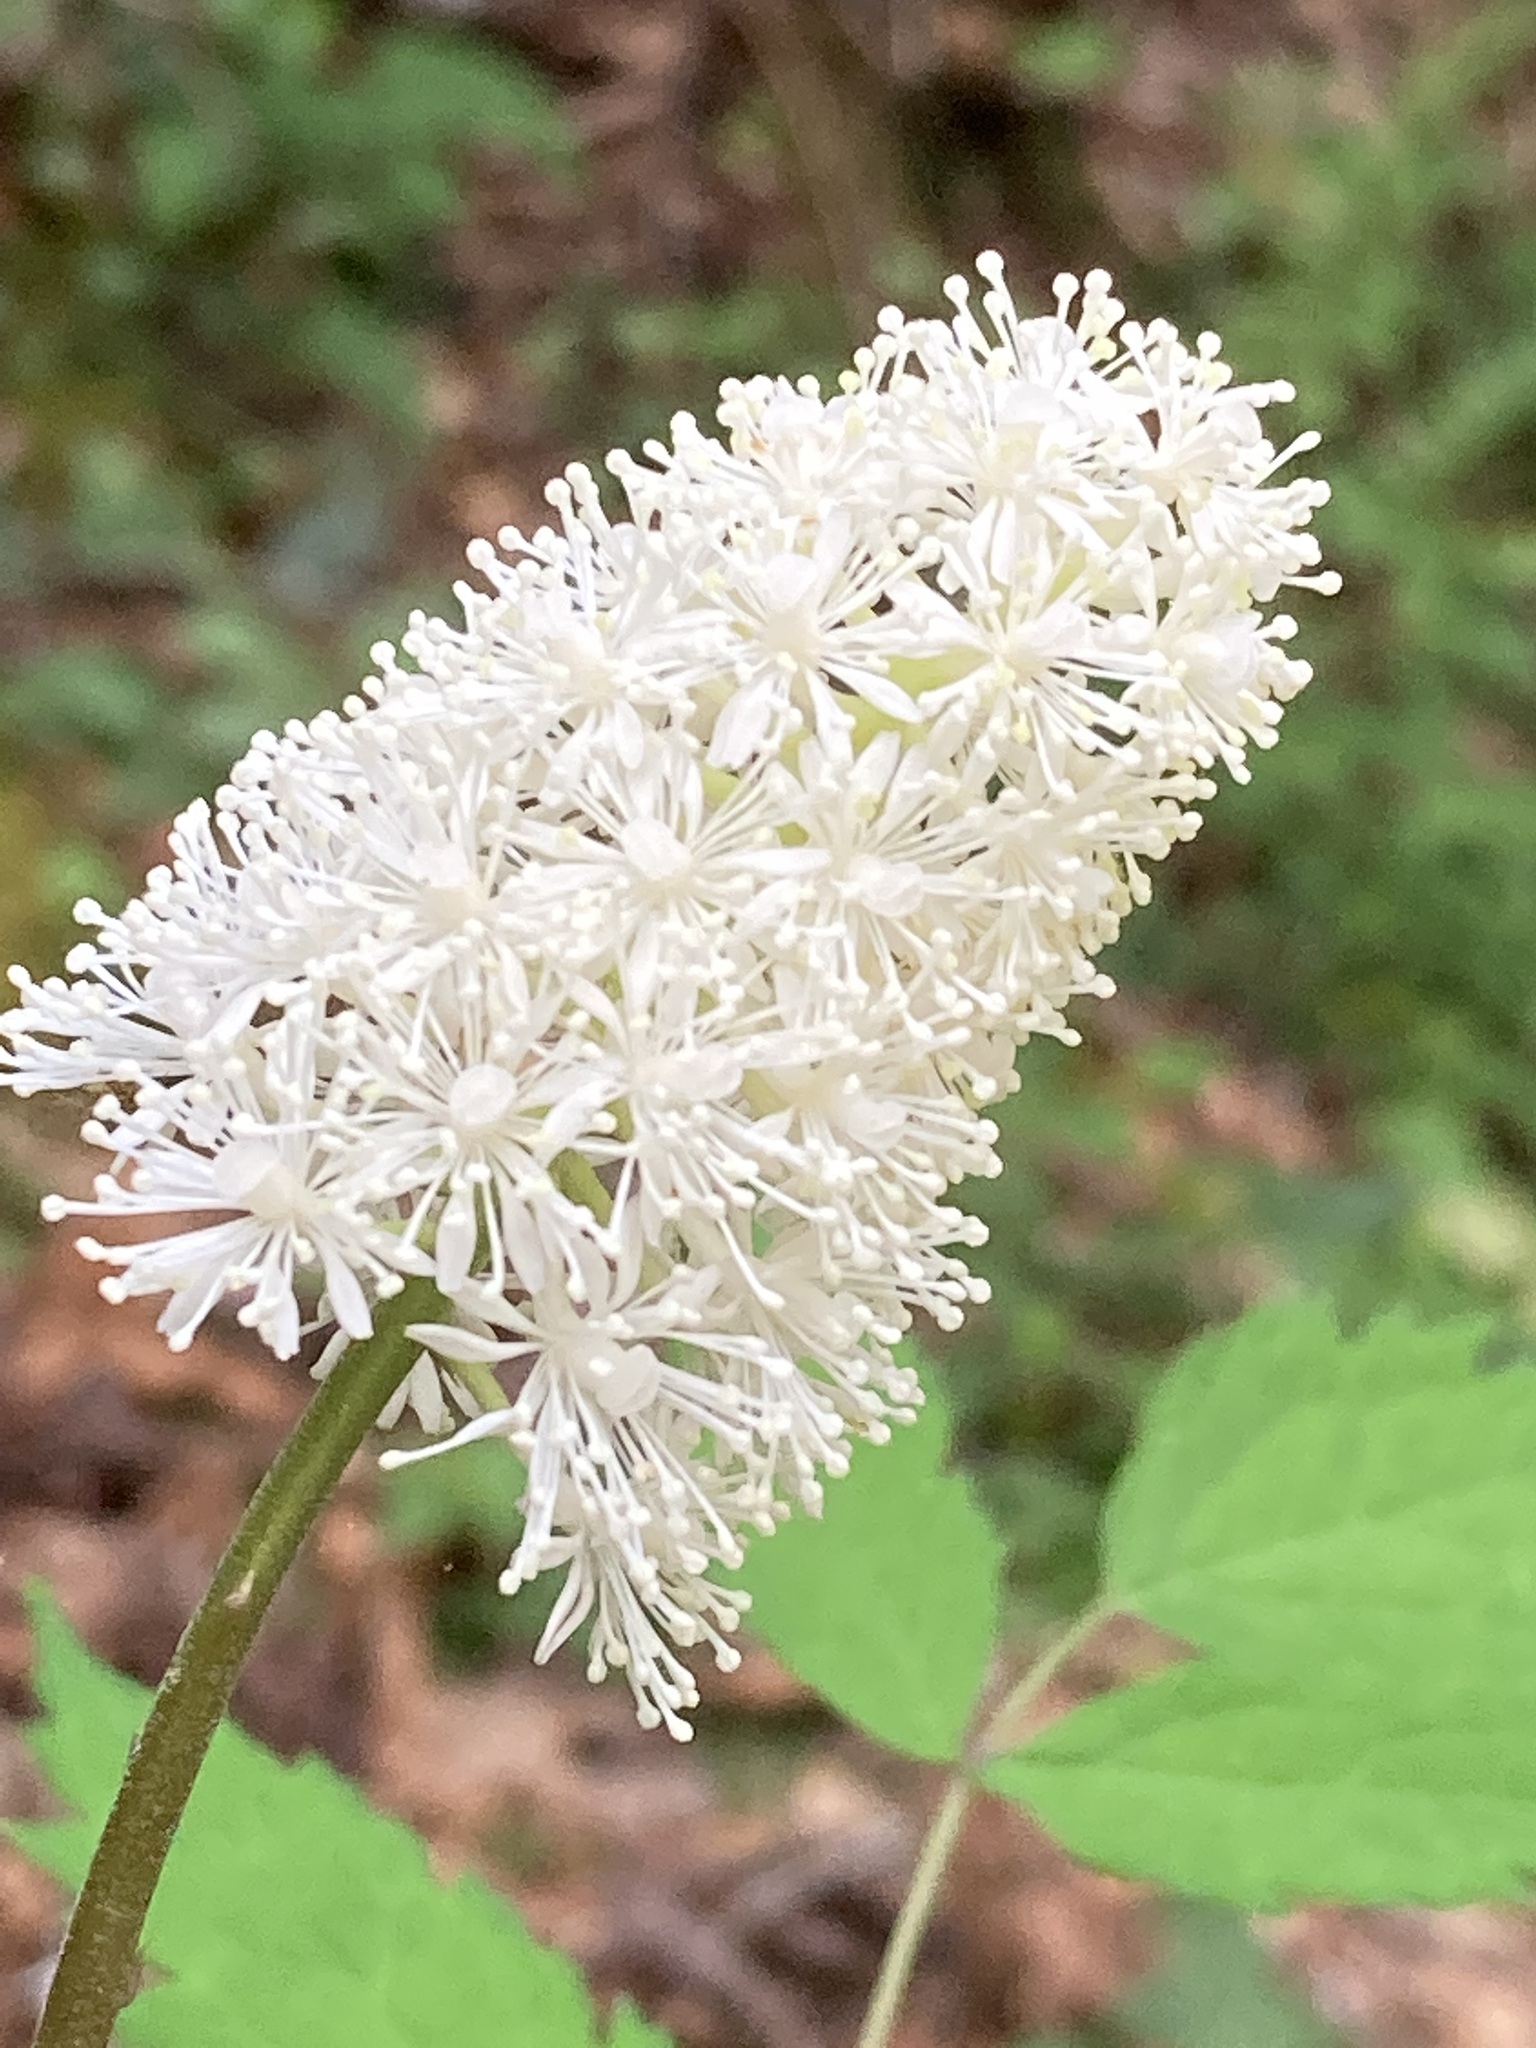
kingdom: Plantae
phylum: Tracheophyta
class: Magnoliopsida
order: Ranunculales
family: Ranunculaceae
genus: Actaea
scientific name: Actaea pachypoda
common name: Doll's-eyes
